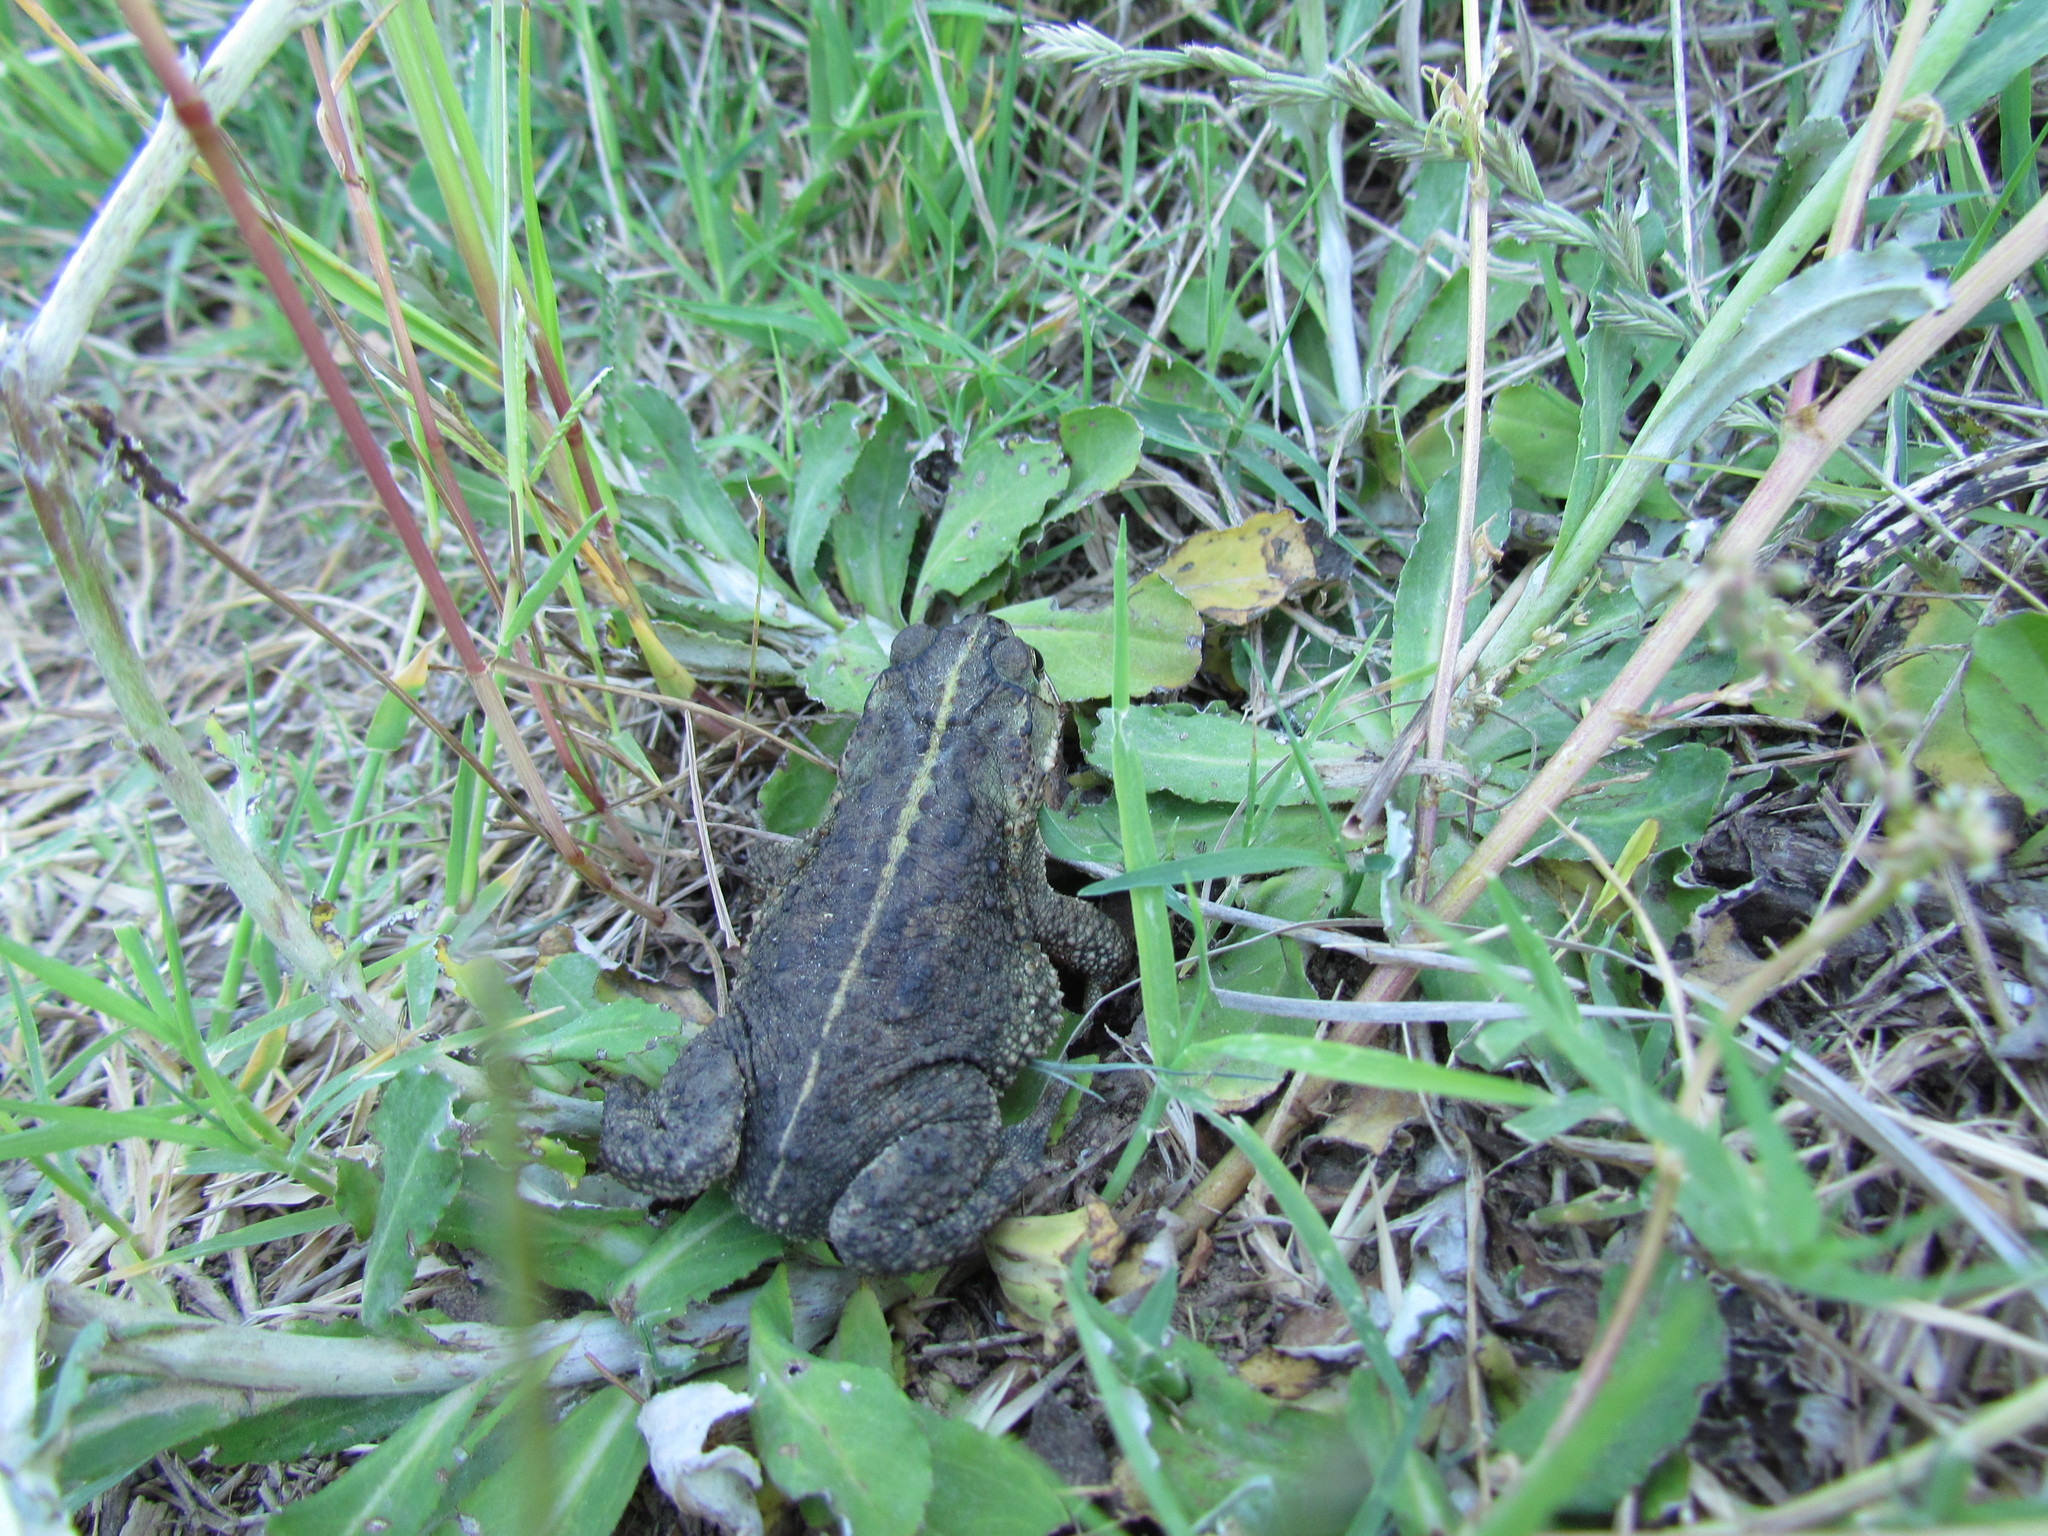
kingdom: Animalia
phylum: Chordata
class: Amphibia
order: Anura
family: Bufonidae
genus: Rhinella
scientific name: Rhinella dorbignyi
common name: D´orbigny’s toad
